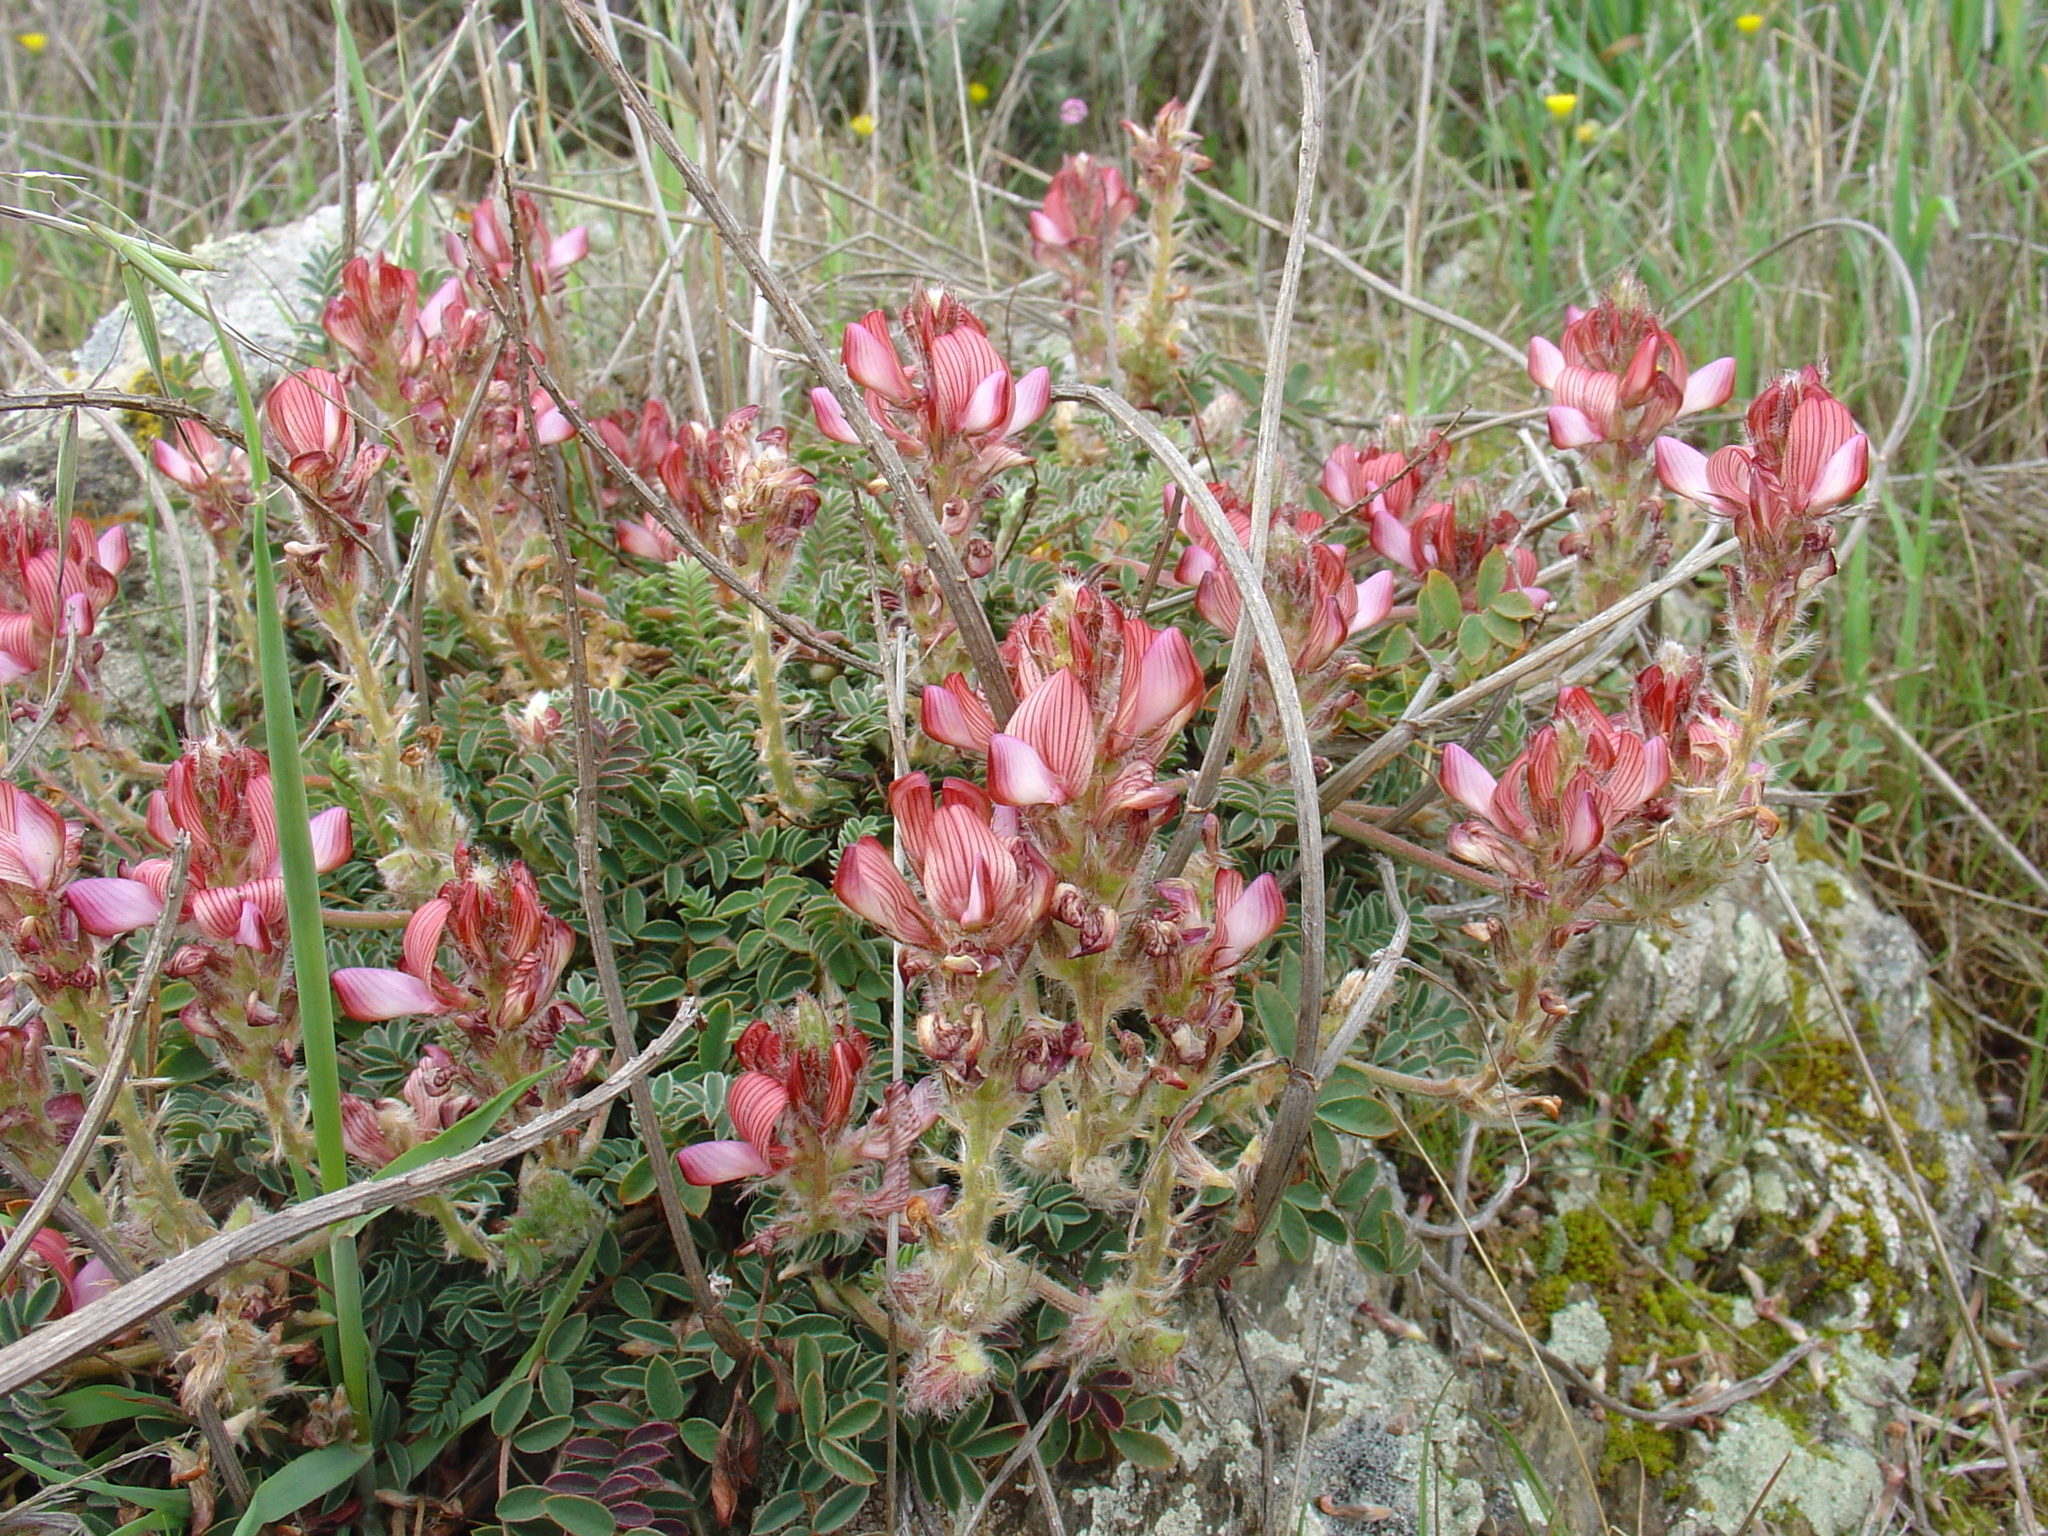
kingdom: Plantae
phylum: Tracheophyta
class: Magnoliopsida
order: Fabales
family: Fabaceae
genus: Onobrychis
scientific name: Onobrychis humilis
